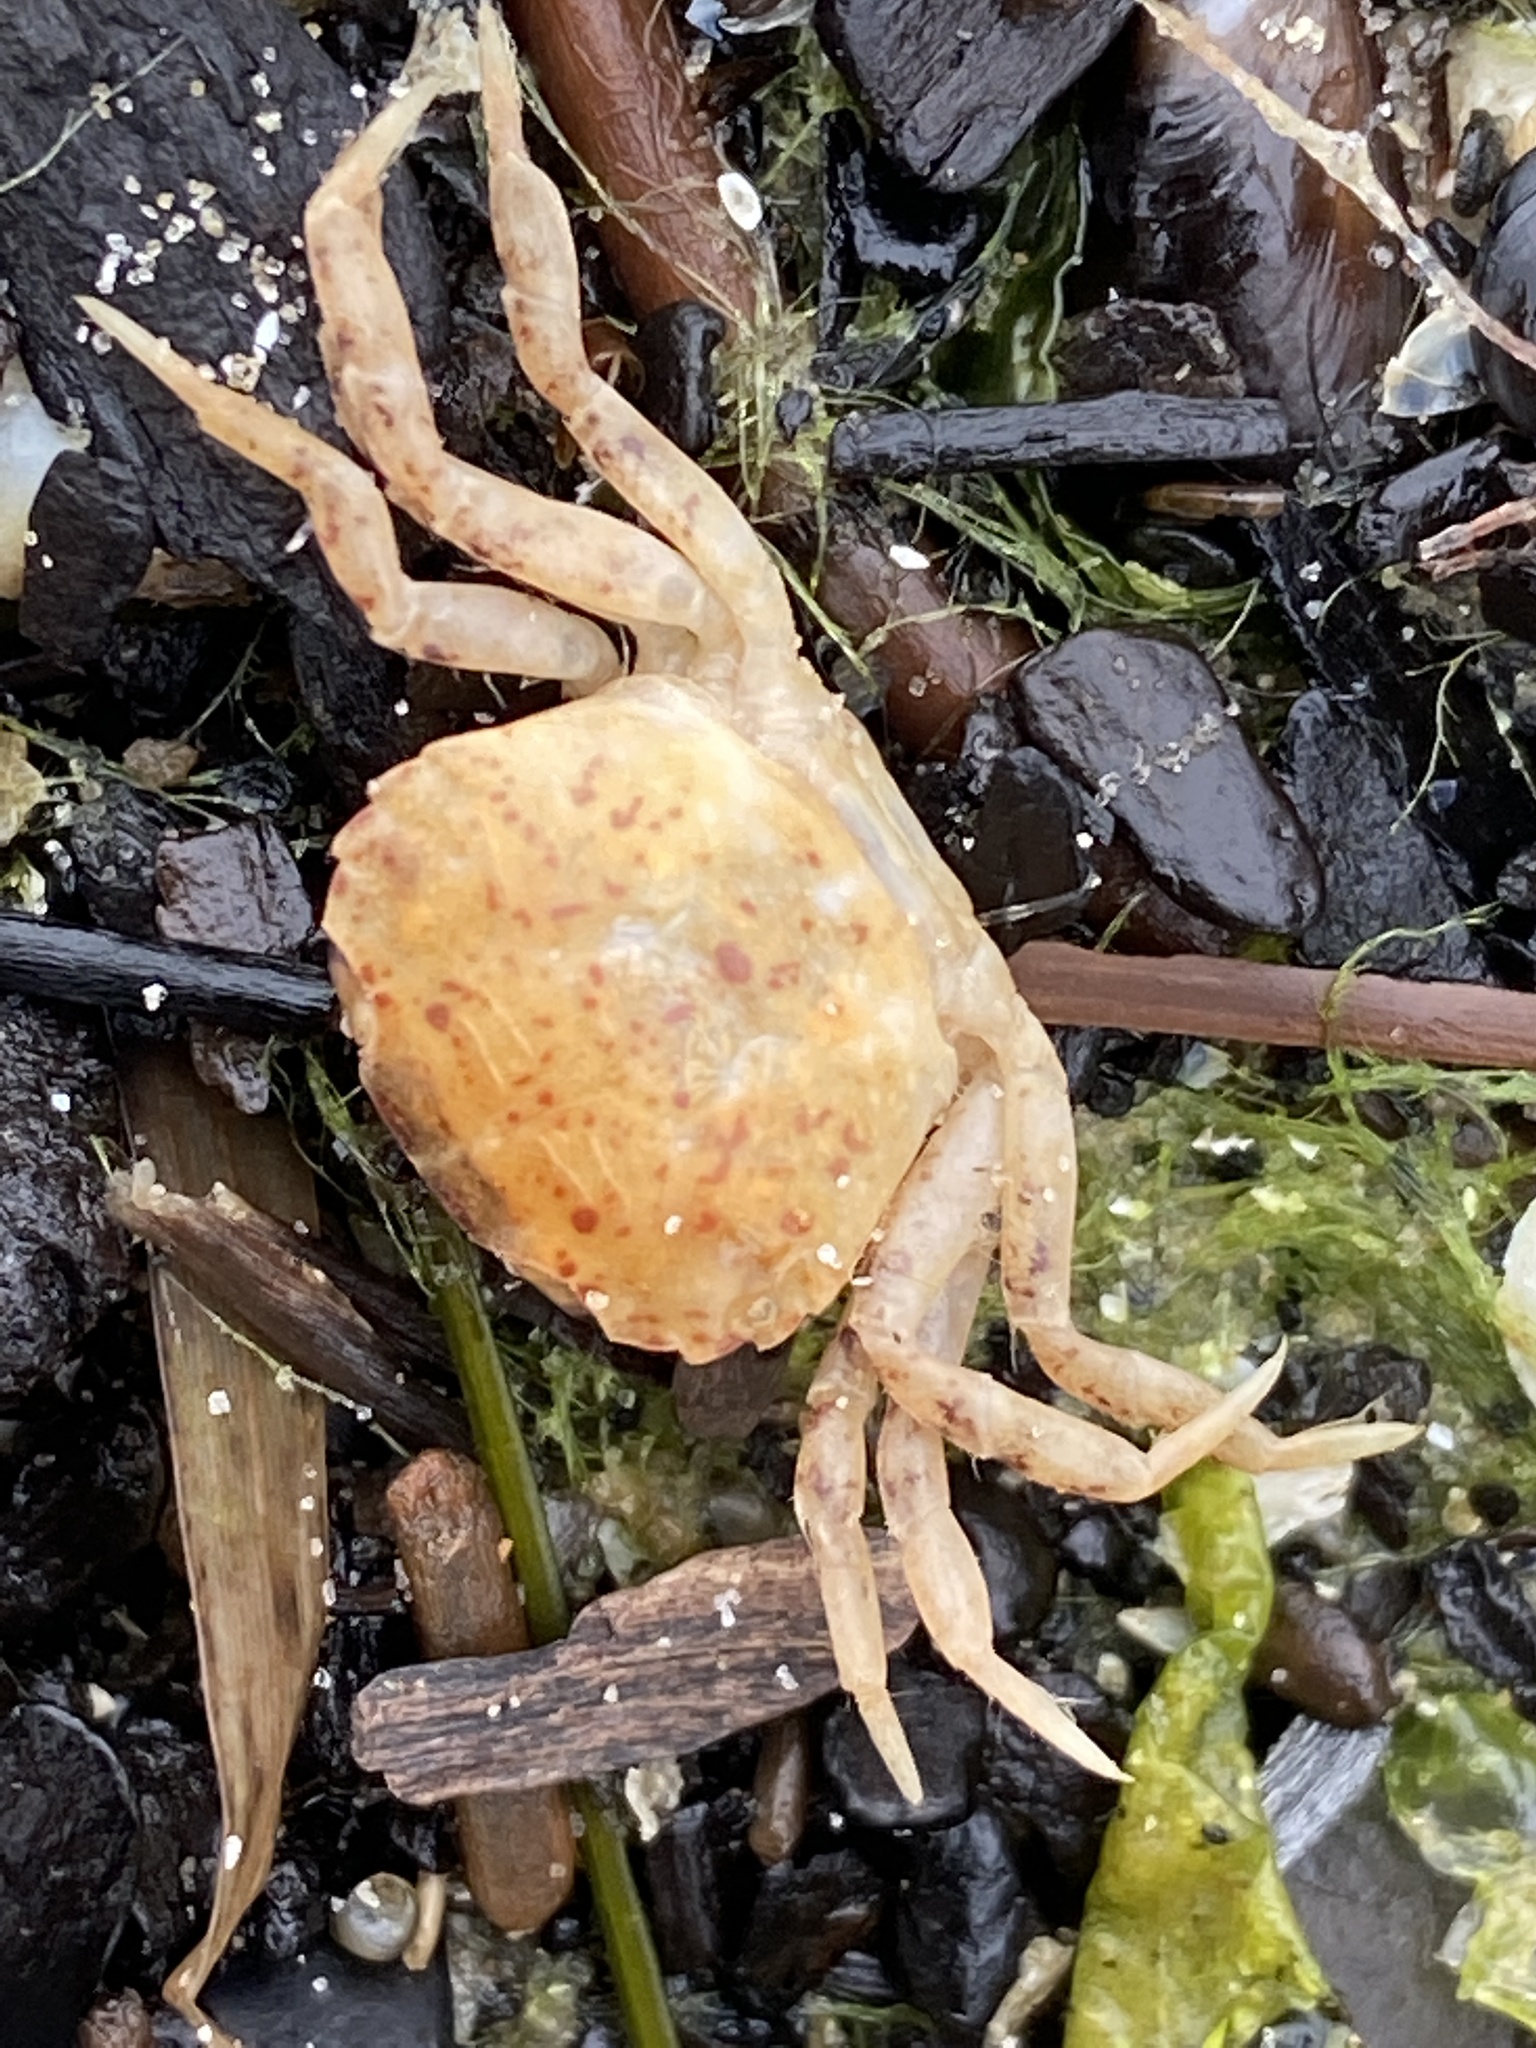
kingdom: Animalia
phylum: Arthropoda
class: Malacostraca
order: Decapoda
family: Panopeidae
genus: Rhithropanopeus
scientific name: Rhithropanopeus harrisii
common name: Dwarf crab
